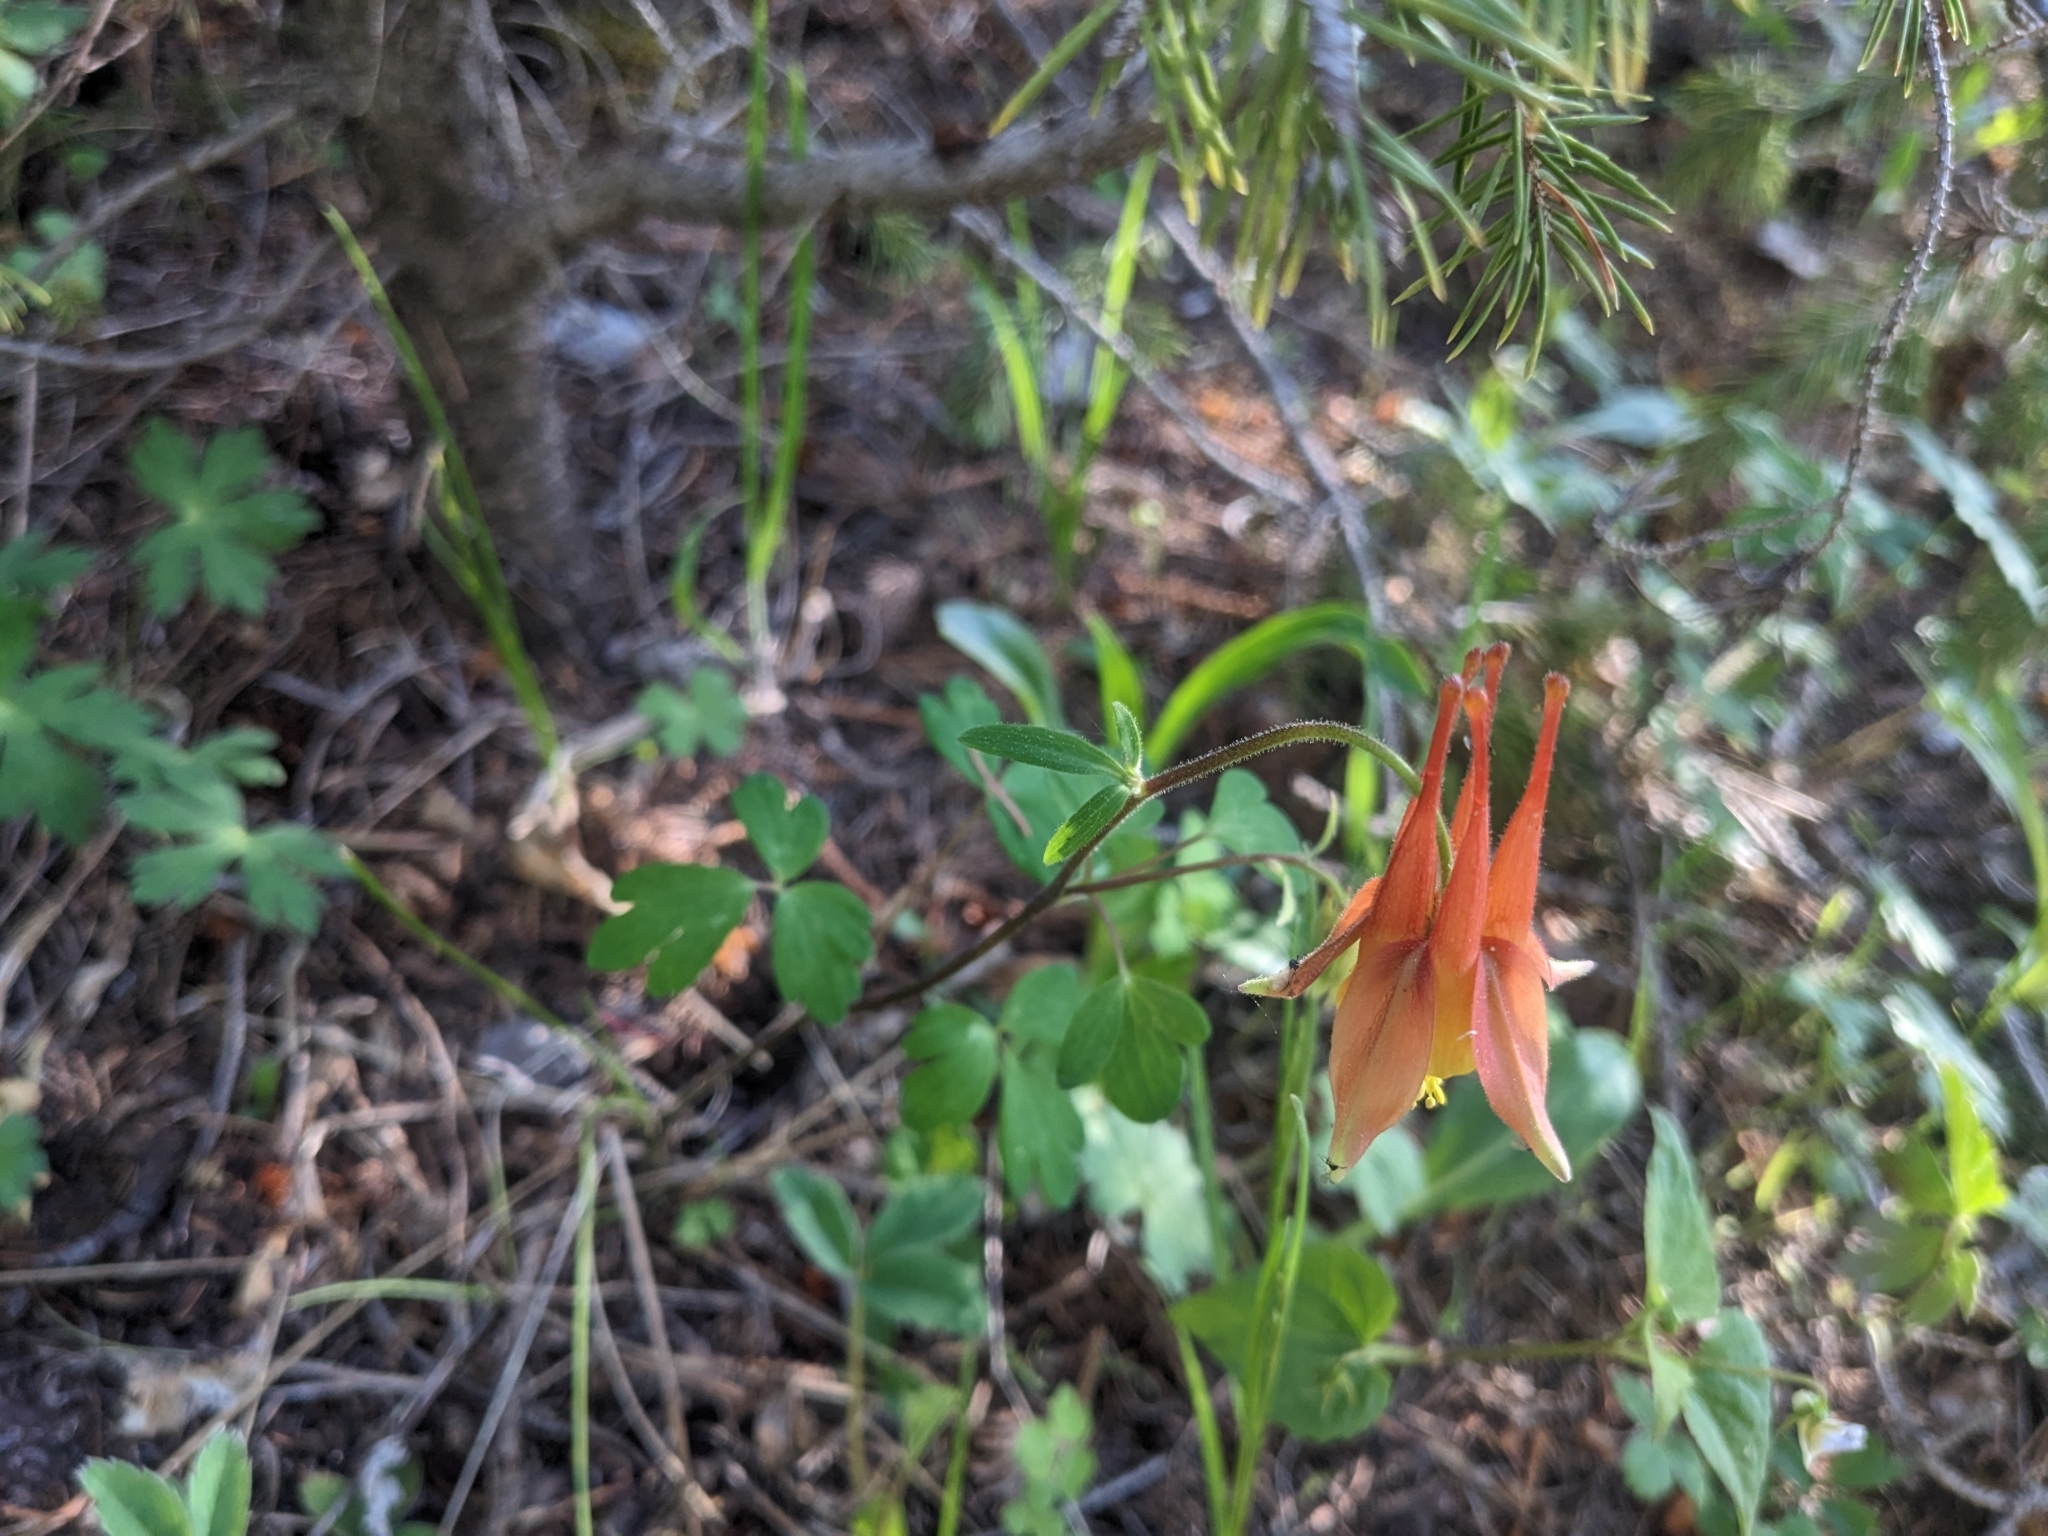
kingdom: Plantae
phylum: Tracheophyta
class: Magnoliopsida
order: Ranunculales
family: Ranunculaceae
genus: Aquilegia
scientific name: Aquilegia desertorum
